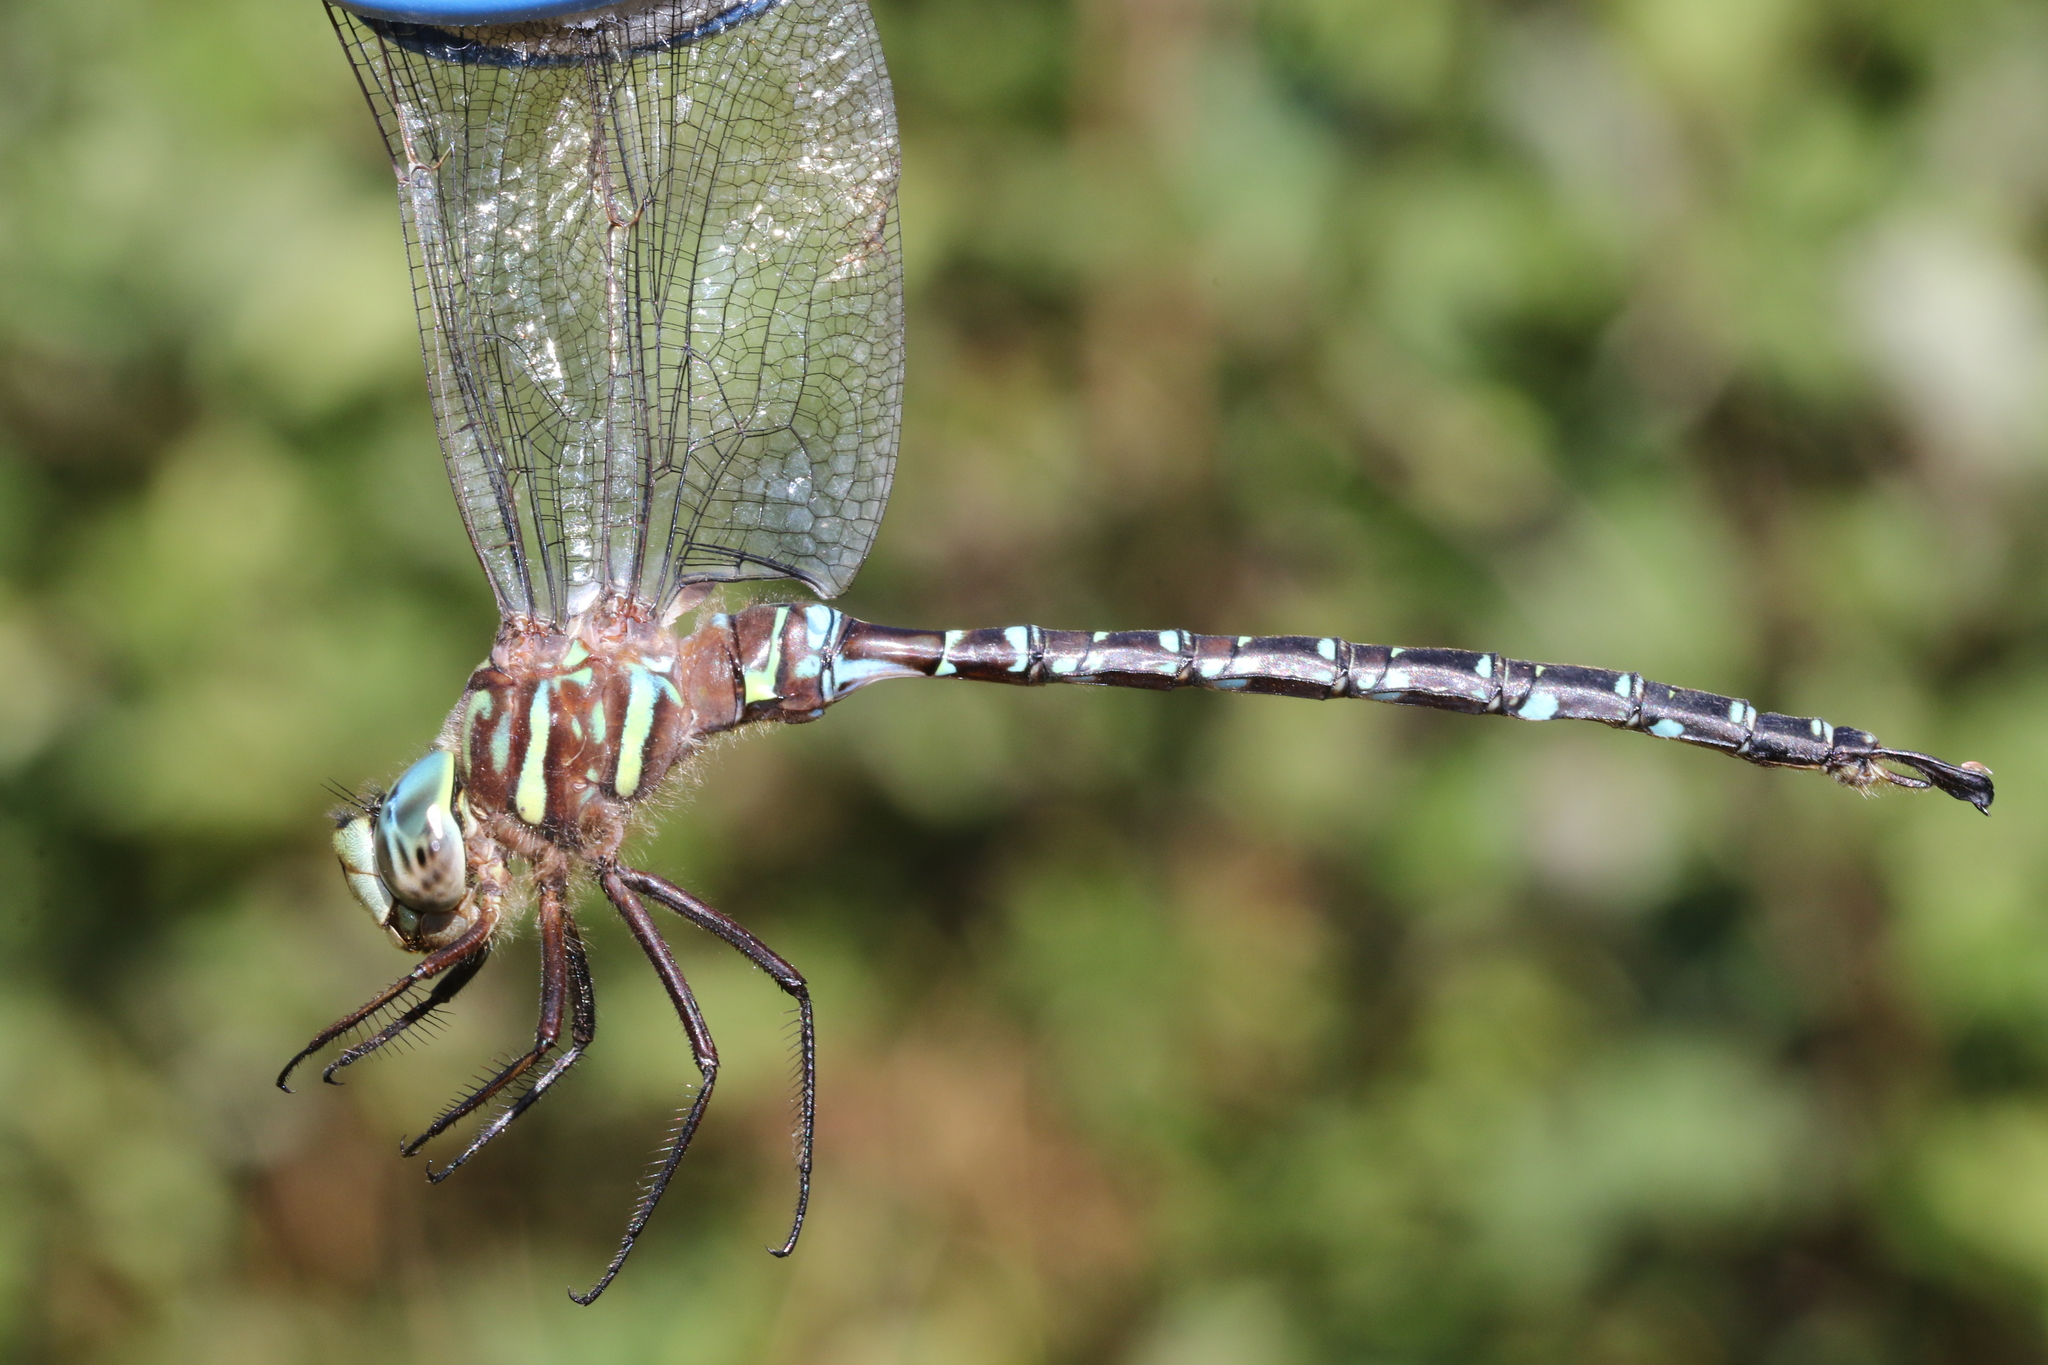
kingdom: Animalia
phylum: Arthropoda
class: Insecta
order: Odonata
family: Aeshnidae
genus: Aeshna
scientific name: Aeshna umbrosa
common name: Shadow darner
